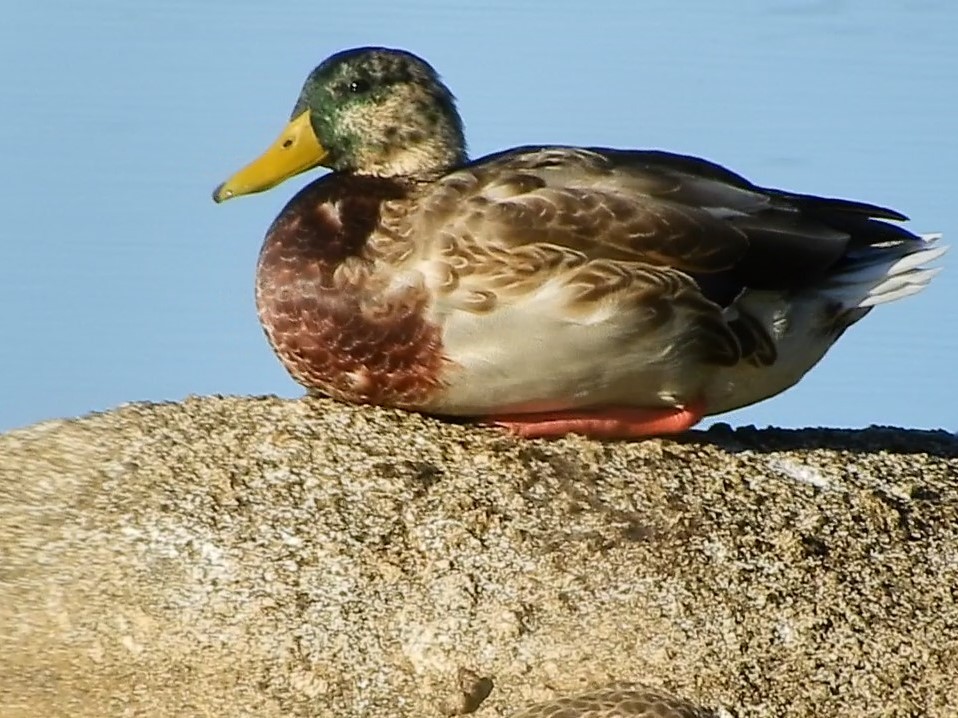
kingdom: Animalia
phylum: Chordata
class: Aves
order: Anseriformes
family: Anatidae
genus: Anas
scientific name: Anas platyrhynchos
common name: Mallard
